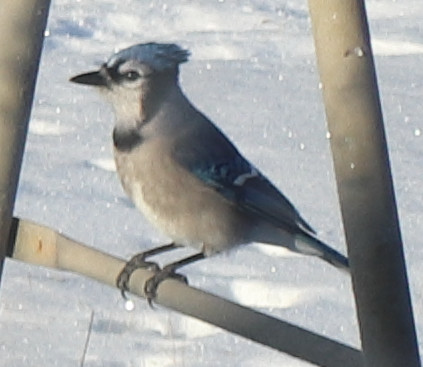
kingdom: Animalia
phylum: Chordata
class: Aves
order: Passeriformes
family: Corvidae
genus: Cyanocitta
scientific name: Cyanocitta cristata
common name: Blue jay
